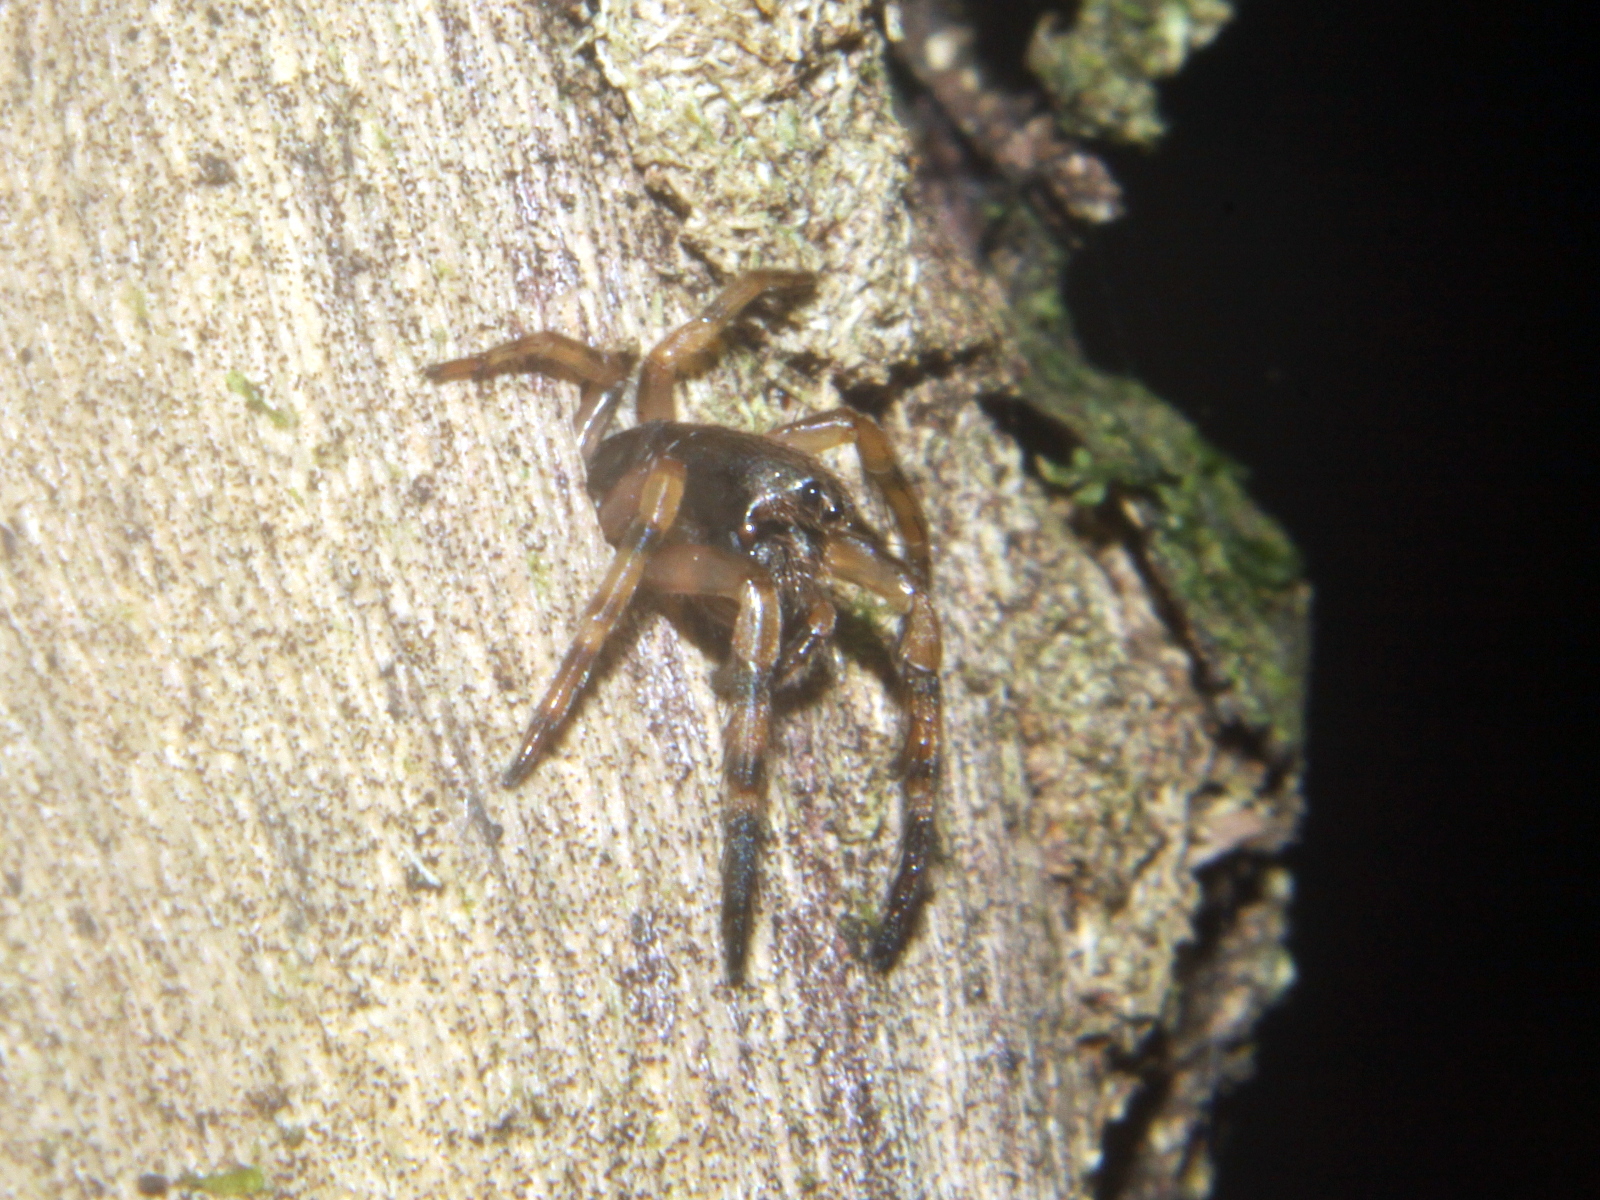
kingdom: Animalia
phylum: Arthropoda
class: Arachnida
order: Araneae
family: Cycloctenidae
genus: Plectophanes
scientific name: Plectophanes
